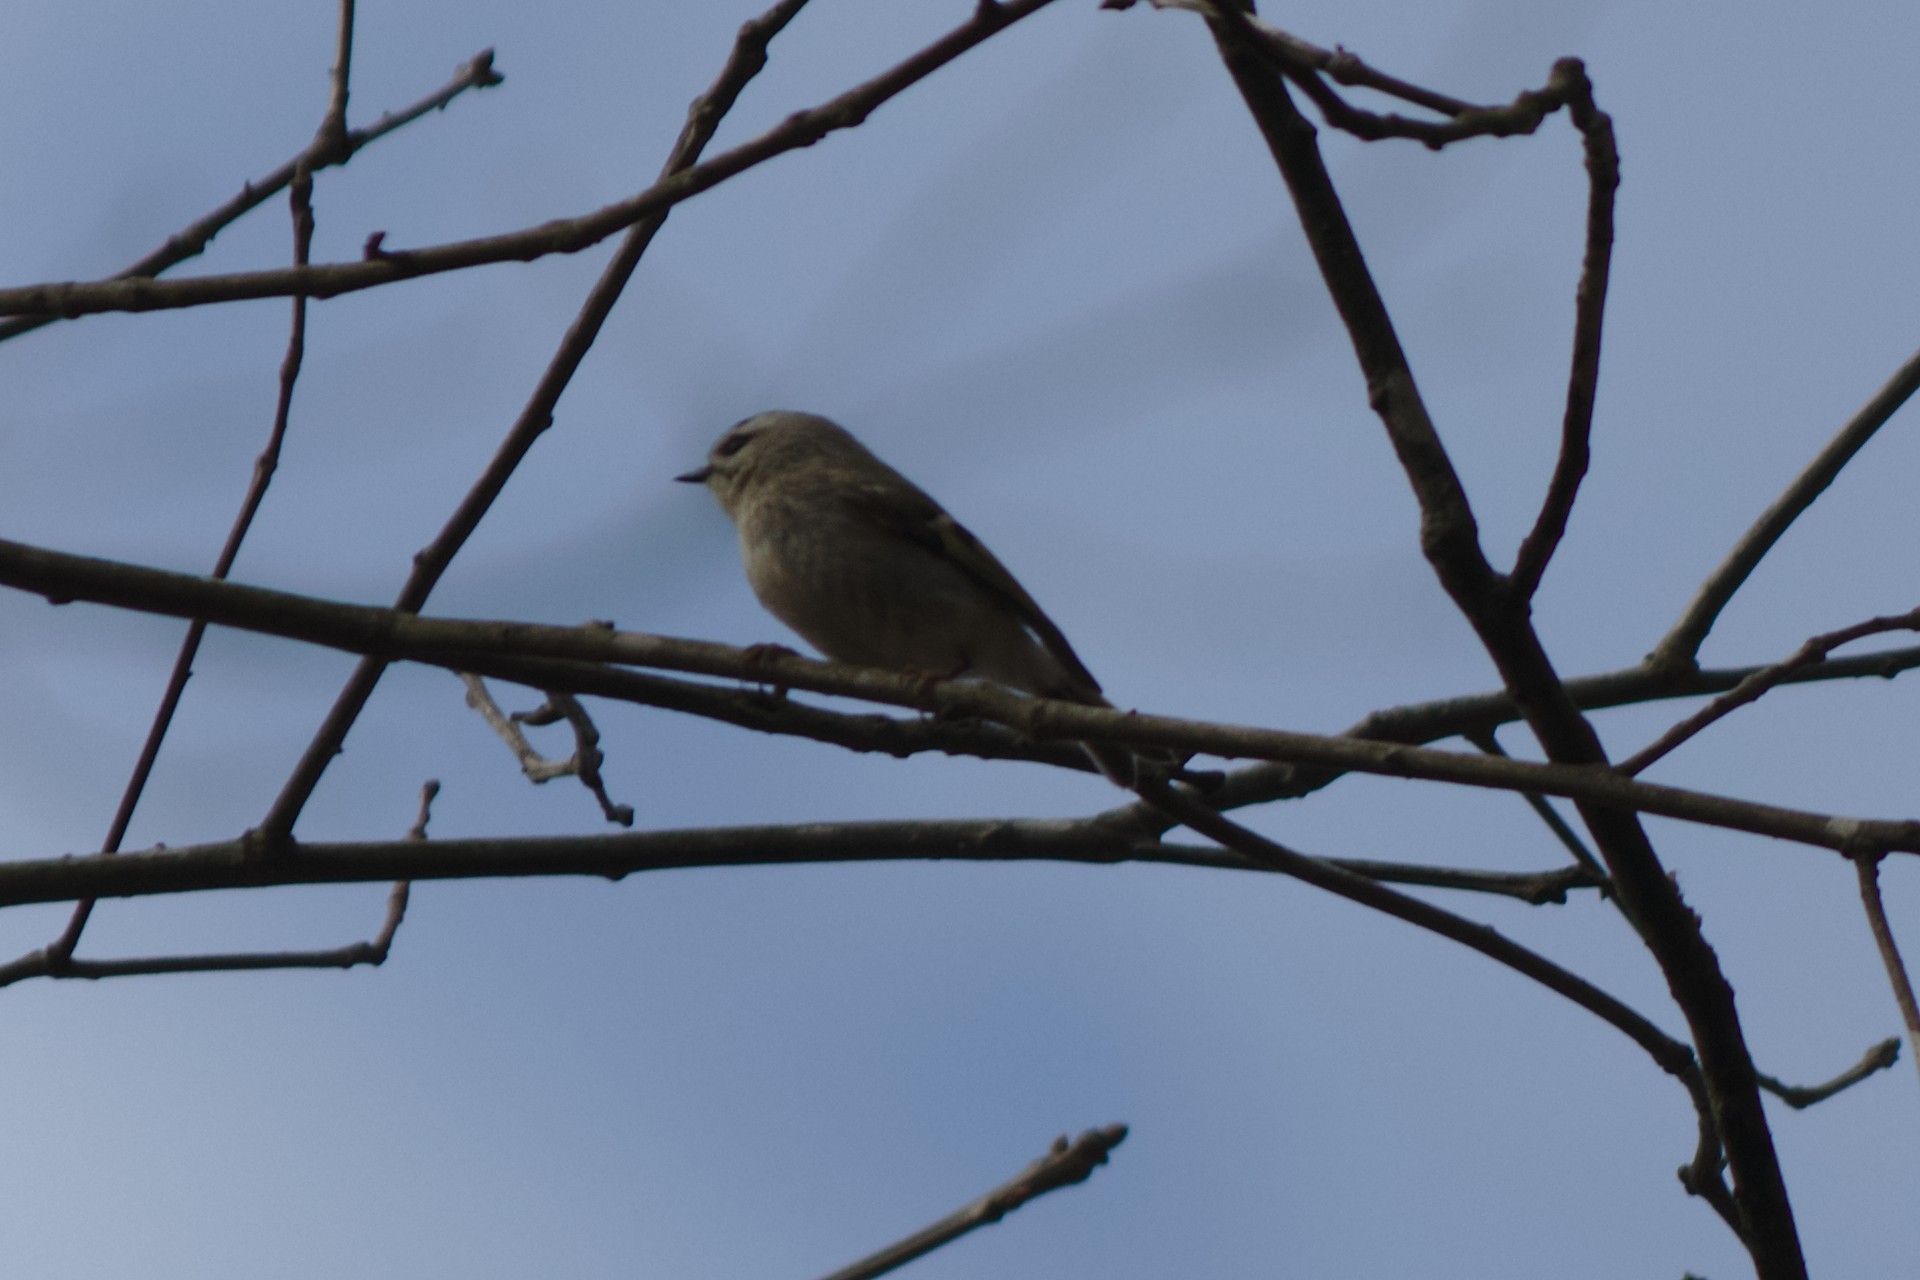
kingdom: Animalia
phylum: Chordata
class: Aves
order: Passeriformes
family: Regulidae
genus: Regulus
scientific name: Regulus satrapa
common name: Golden-crowned kinglet
